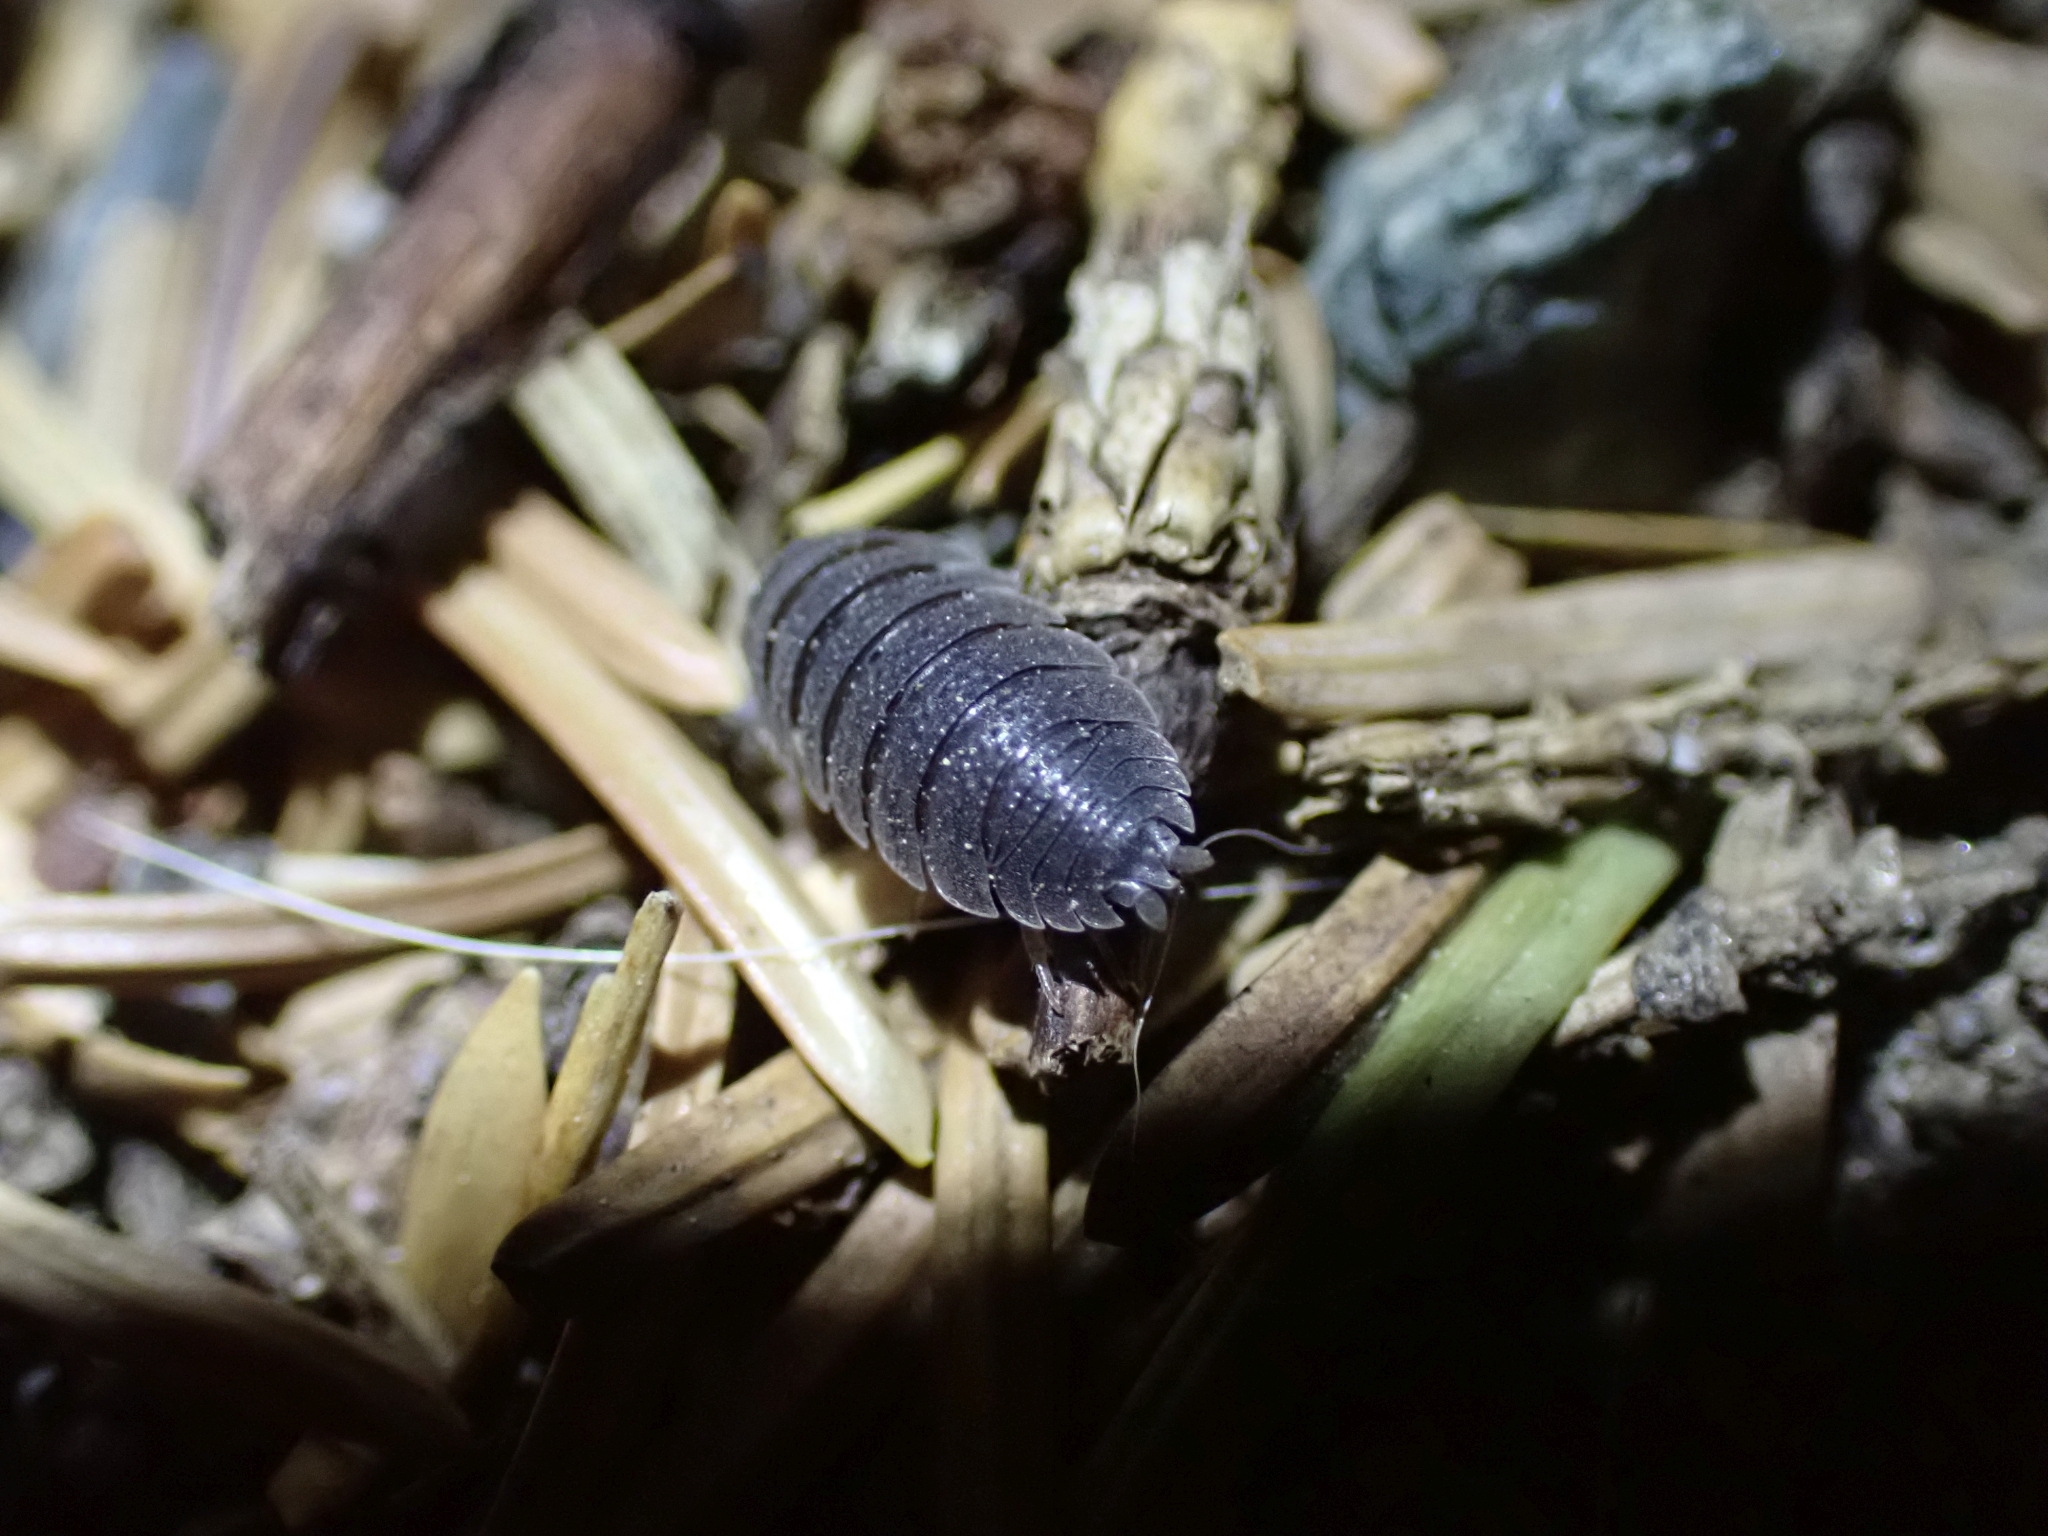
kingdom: Animalia
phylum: Arthropoda
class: Malacostraca
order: Isopoda
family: Porcellionidae
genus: Porcellio
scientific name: Porcellio scaber
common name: Common rough woodlouse
